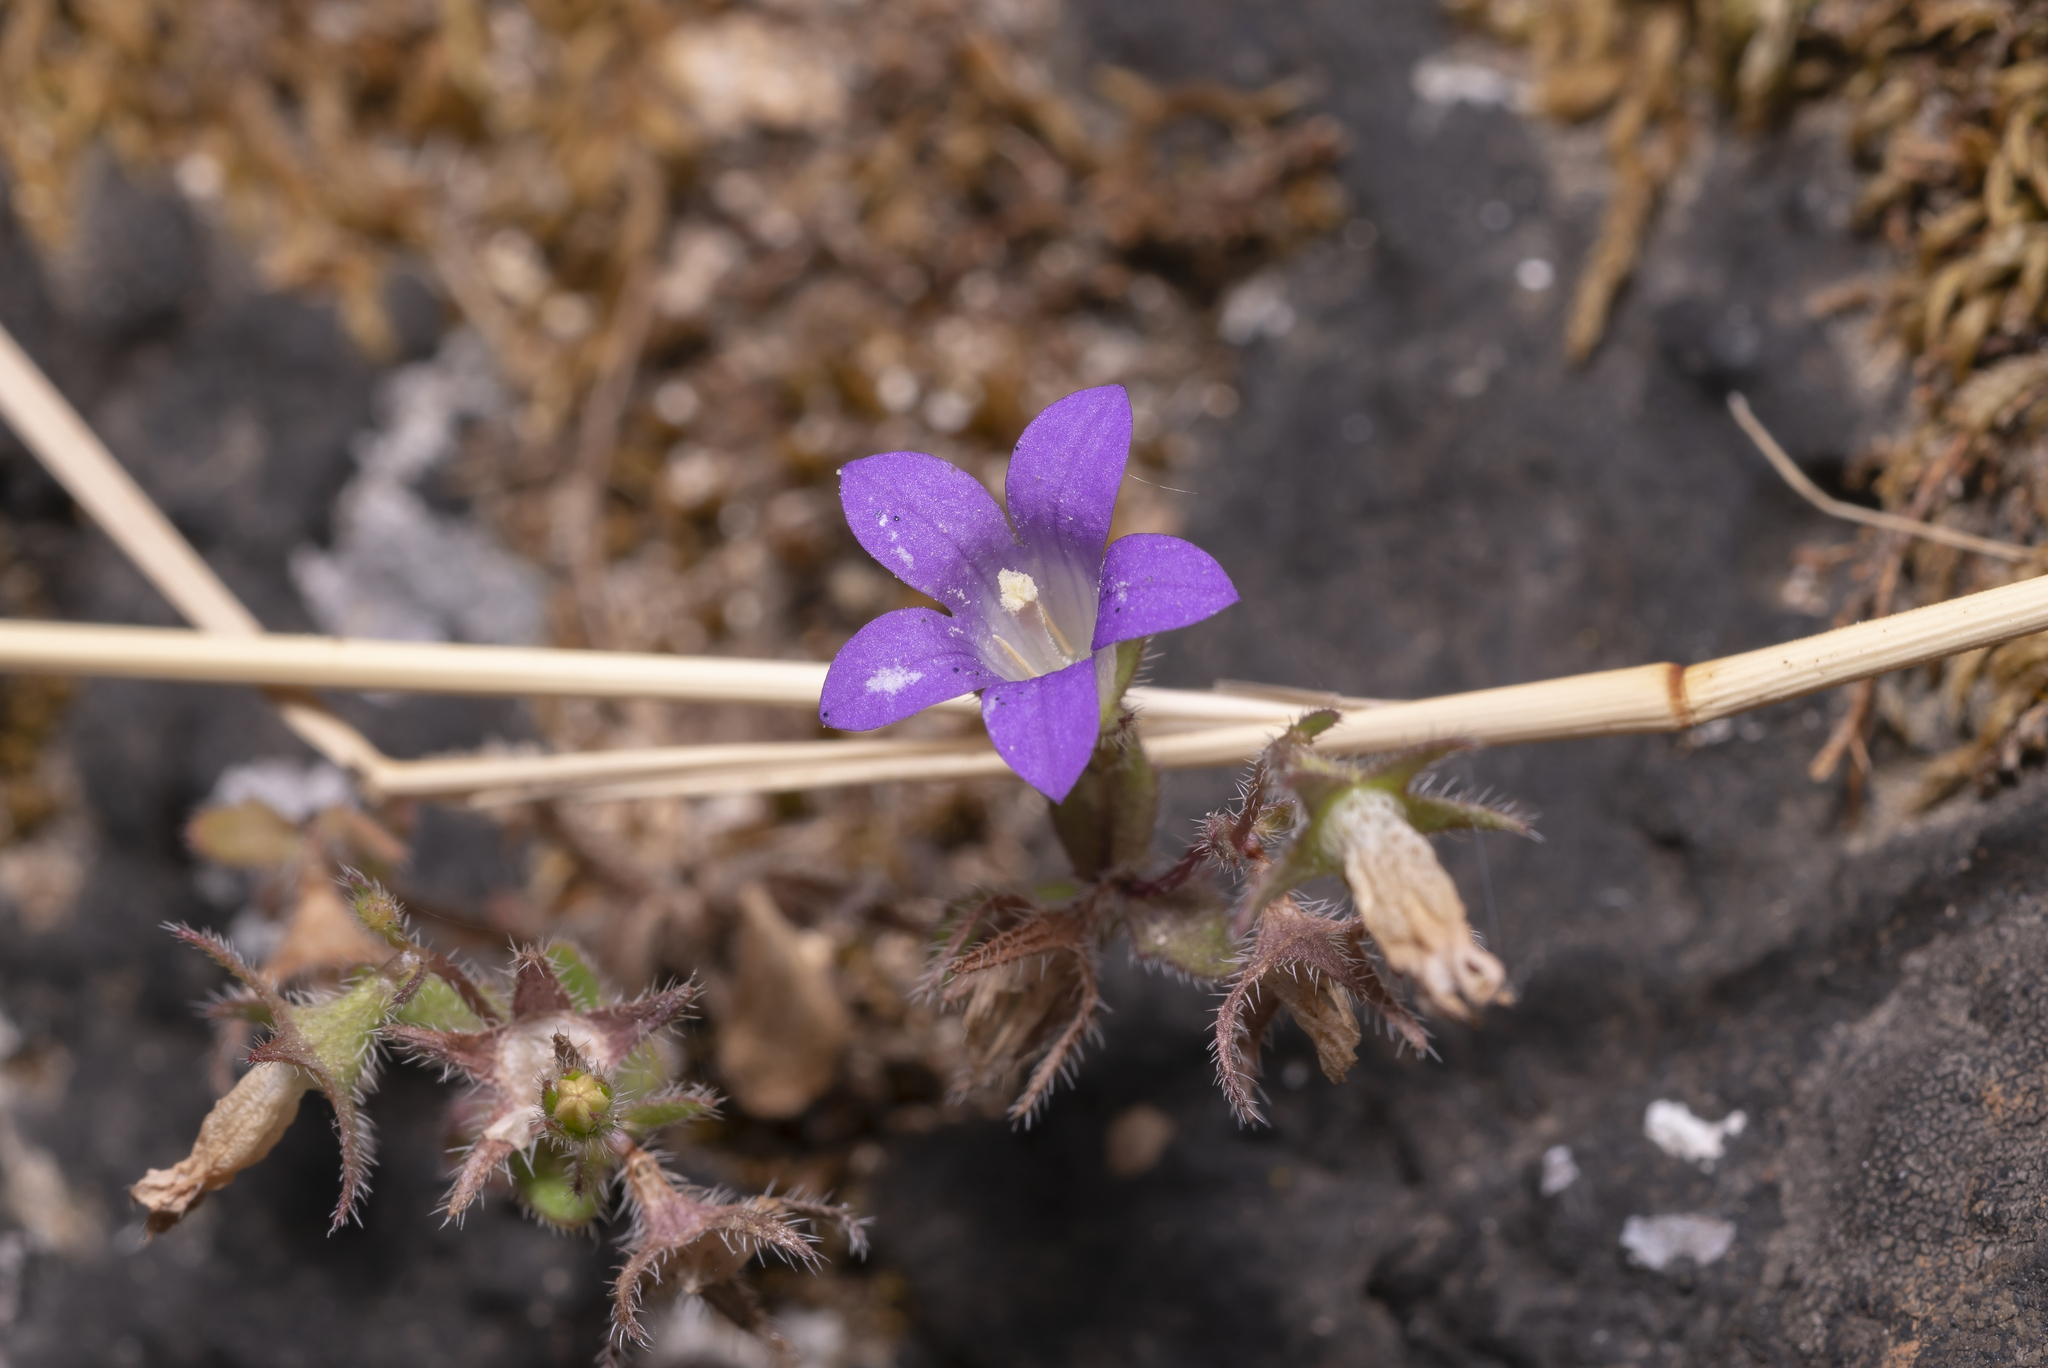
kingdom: Plantae
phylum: Tracheophyta
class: Magnoliopsida
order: Asterales
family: Campanulaceae
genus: Campanula
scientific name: Campanula rhodensis
